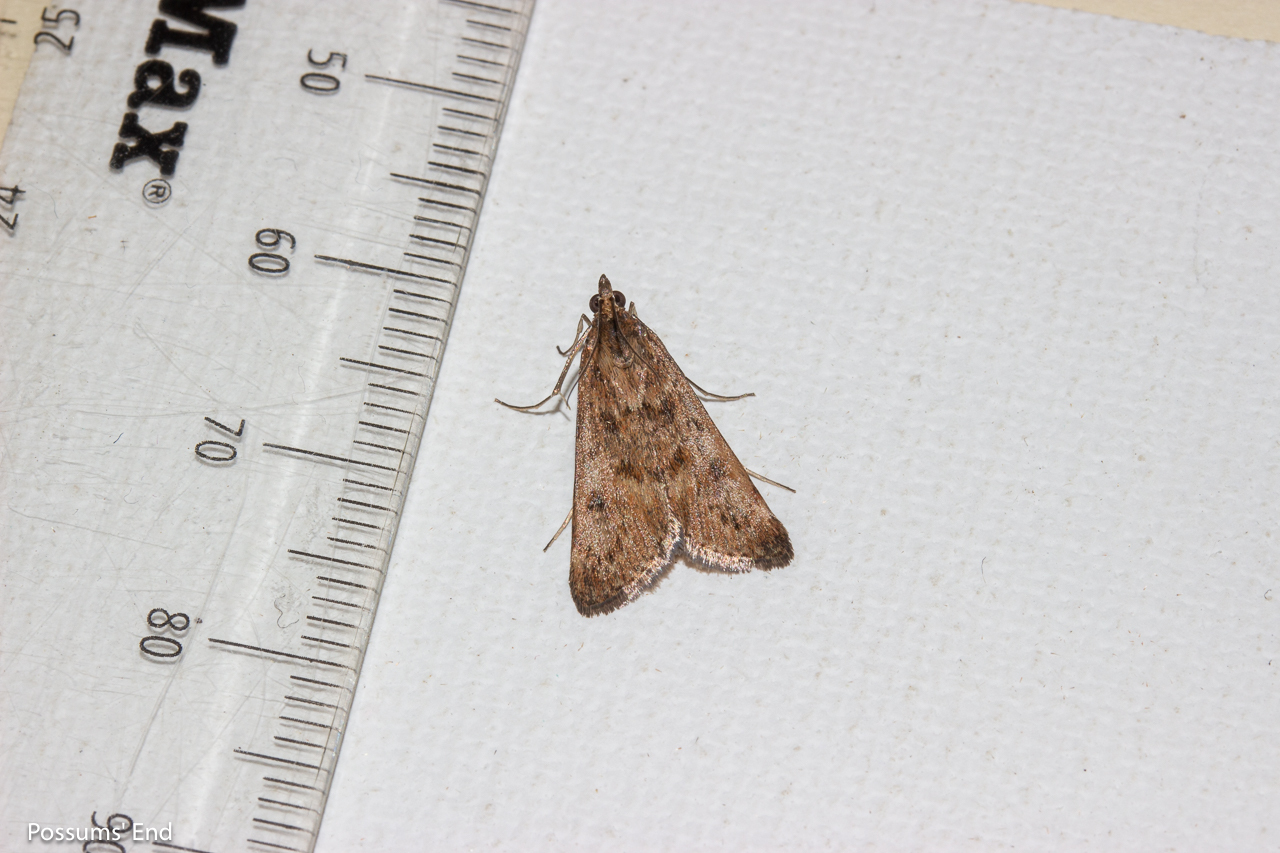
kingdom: Animalia
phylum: Arthropoda
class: Insecta
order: Lepidoptera
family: Crambidae
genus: Achyra
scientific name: Achyra affinitalis
